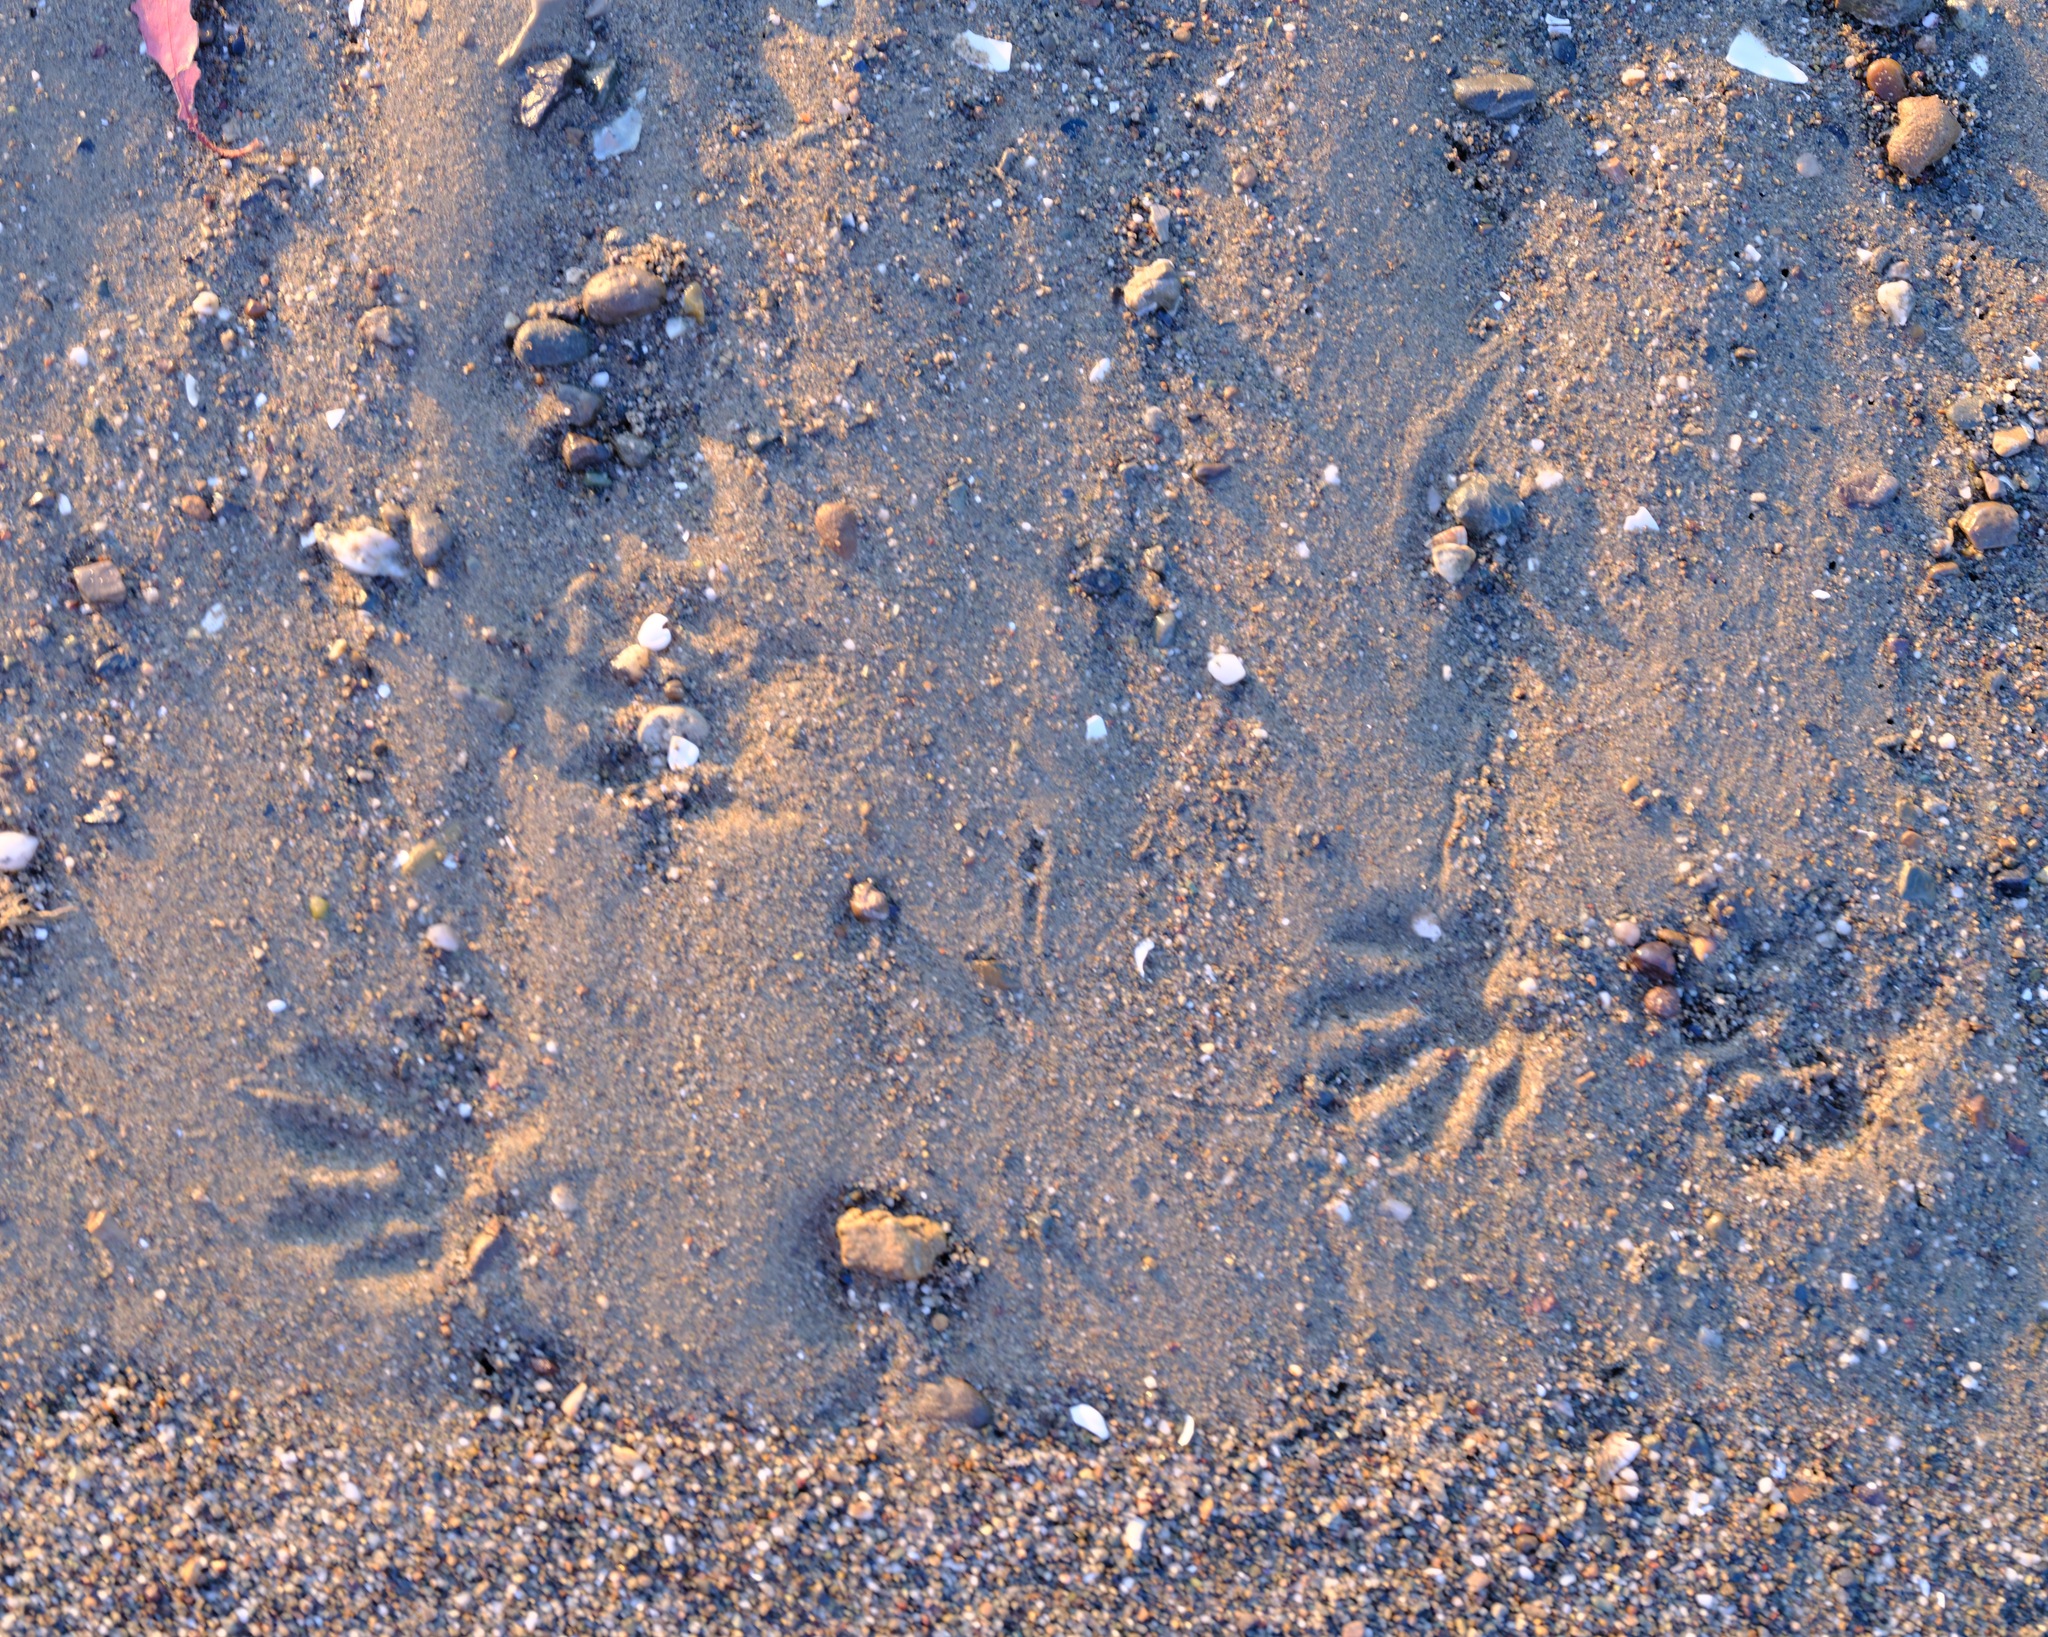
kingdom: Animalia
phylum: Chordata
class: Mammalia
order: Carnivora
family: Procyonidae
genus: Procyon
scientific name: Procyon lotor
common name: Raccoon
